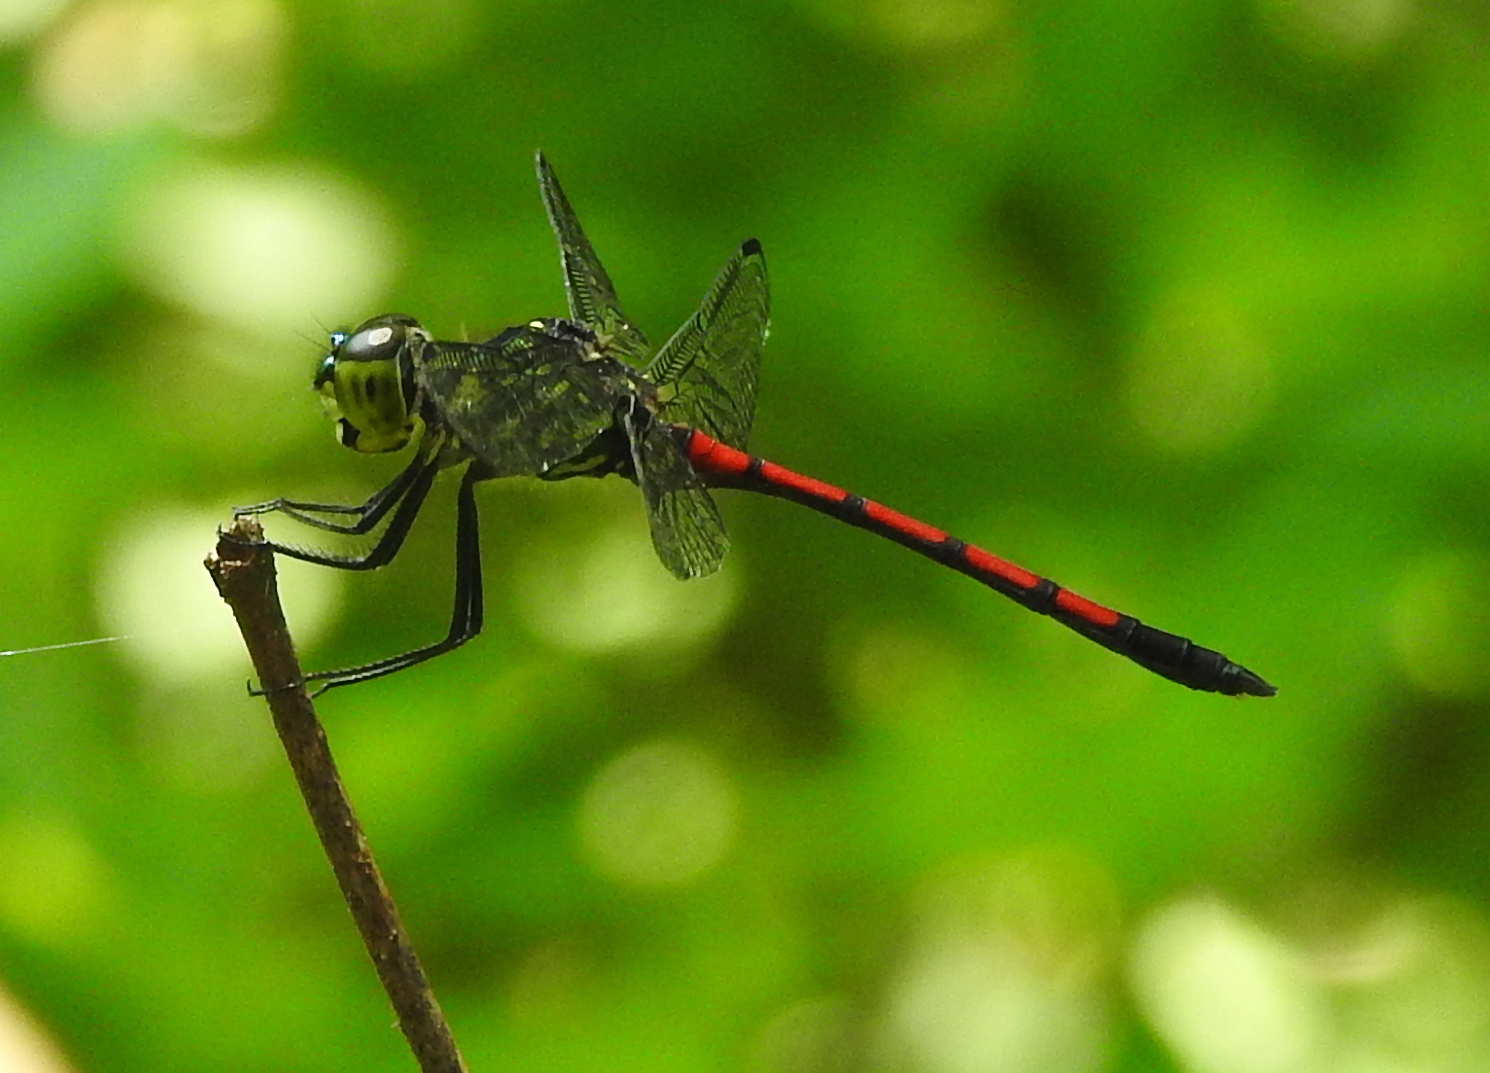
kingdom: Animalia
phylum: Arthropoda
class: Insecta
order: Odonata
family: Libellulidae
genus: Agrionoptera
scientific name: Agrionoptera insignis
